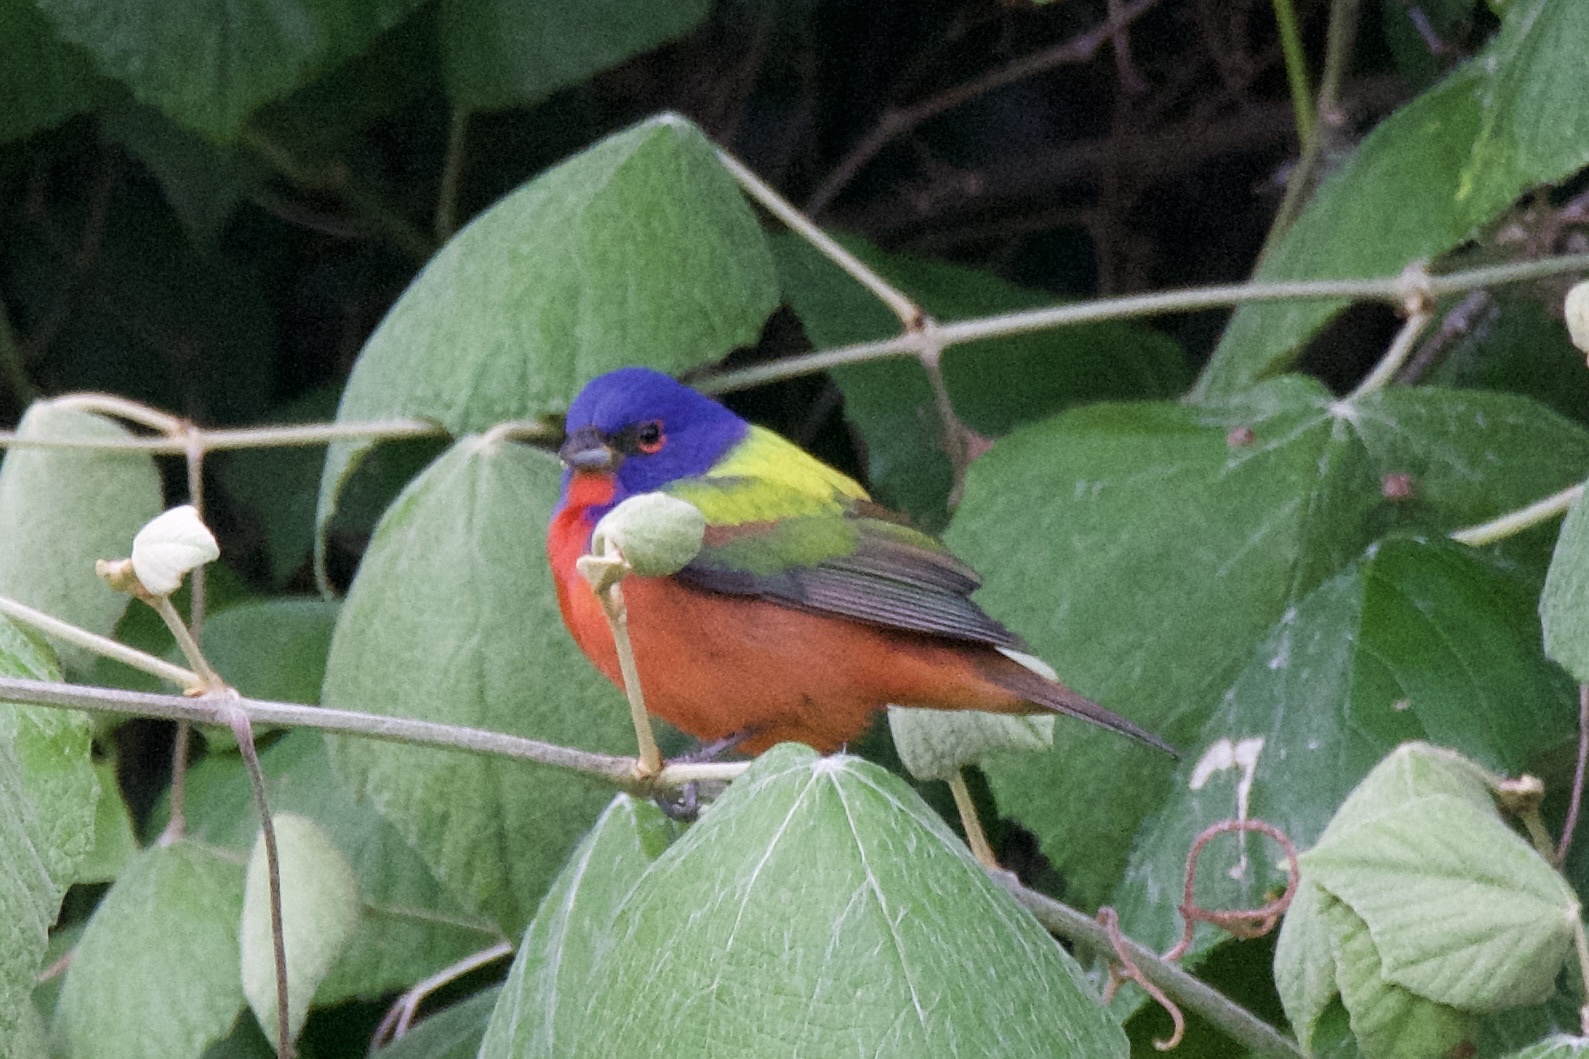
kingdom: Animalia
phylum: Chordata
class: Aves
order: Passeriformes
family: Cardinalidae
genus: Passerina
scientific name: Passerina ciris
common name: Painted bunting
